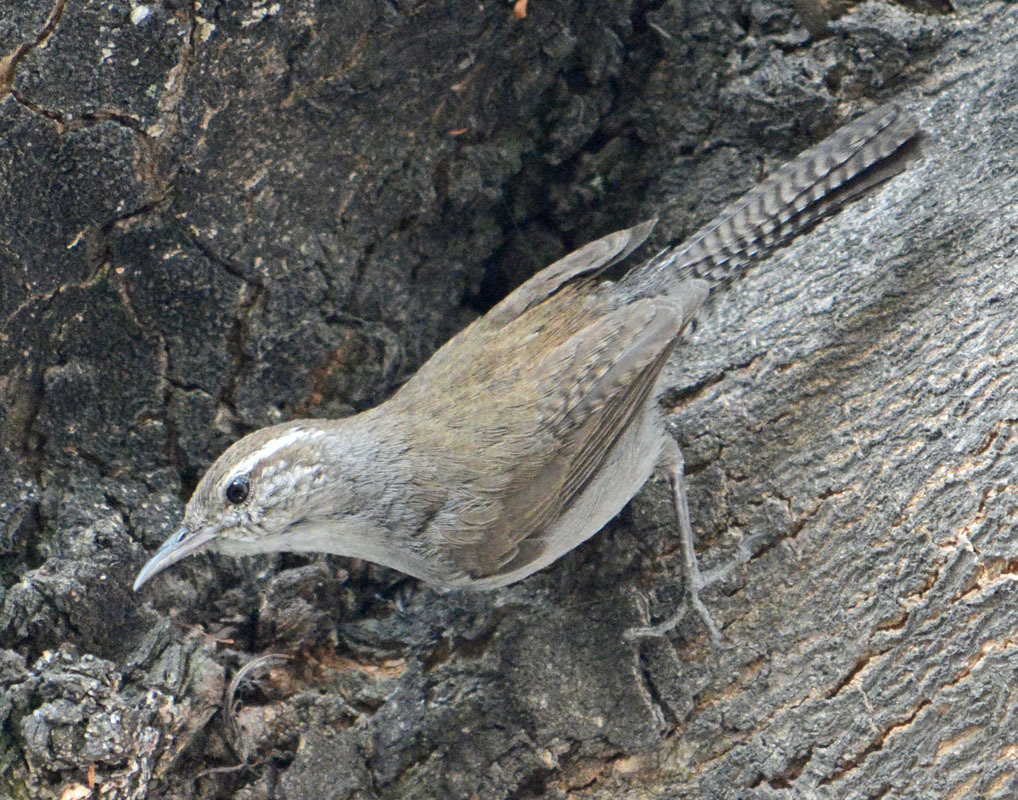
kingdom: Animalia
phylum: Chordata
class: Aves
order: Passeriformes
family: Troglodytidae
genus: Thryomanes
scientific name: Thryomanes bewickii
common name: Bewick's wren
